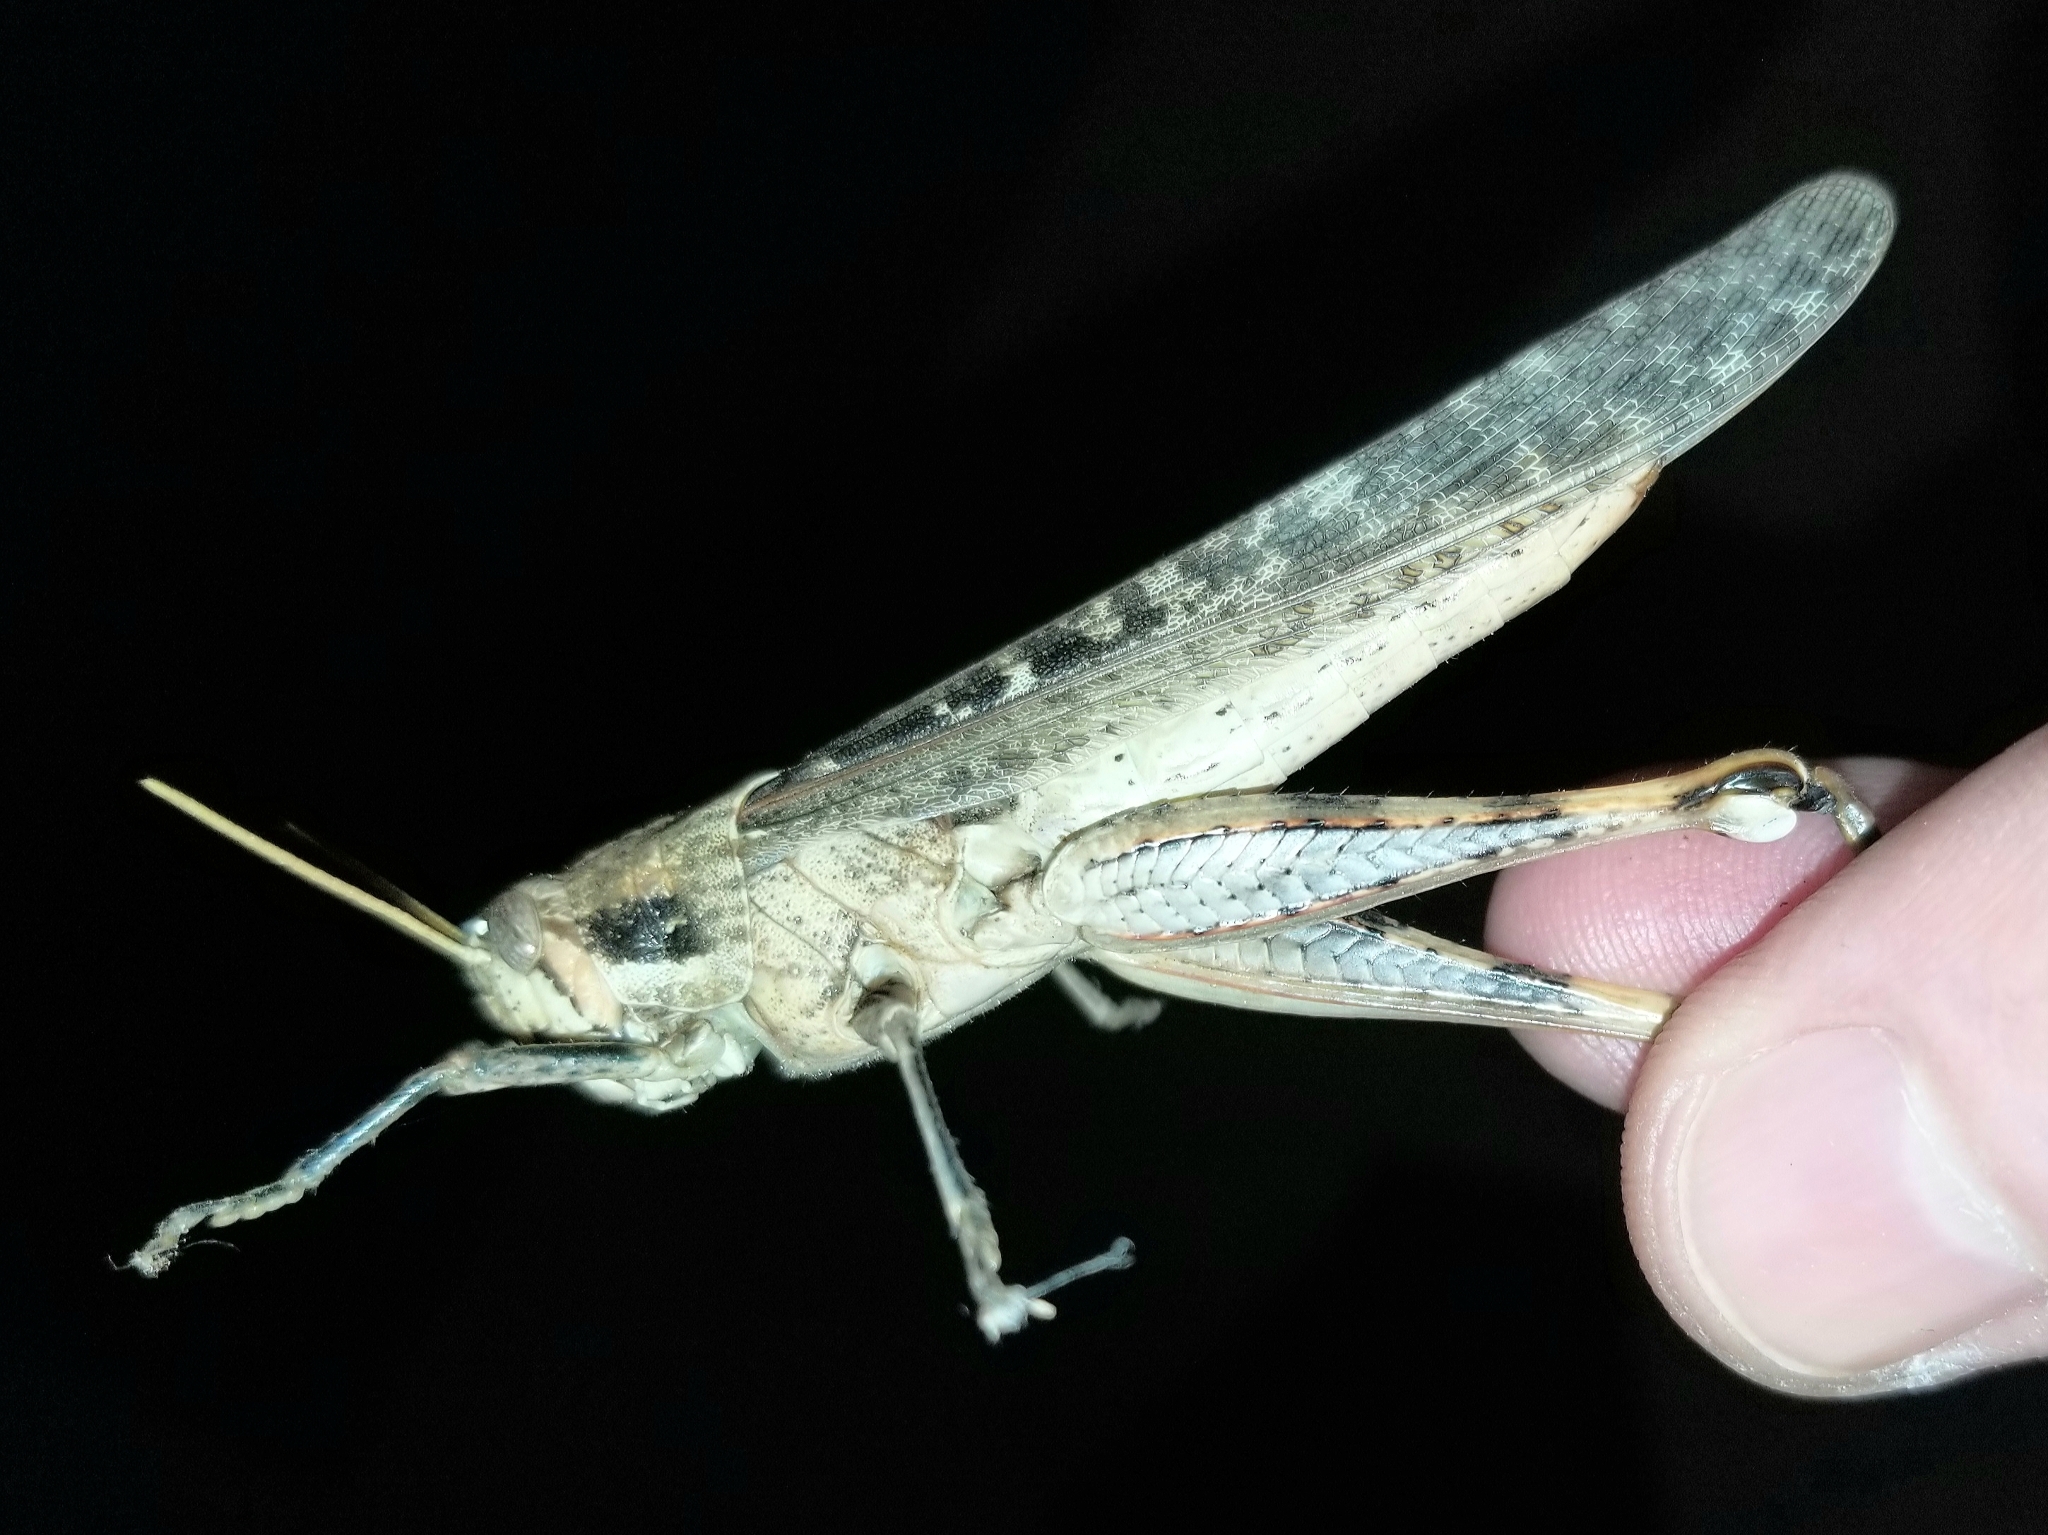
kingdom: Animalia
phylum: Arthropoda
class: Insecta
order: Orthoptera
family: Acrididae
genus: Schistocerca
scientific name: Schistocerca nitens
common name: Vagrant grasshopper
